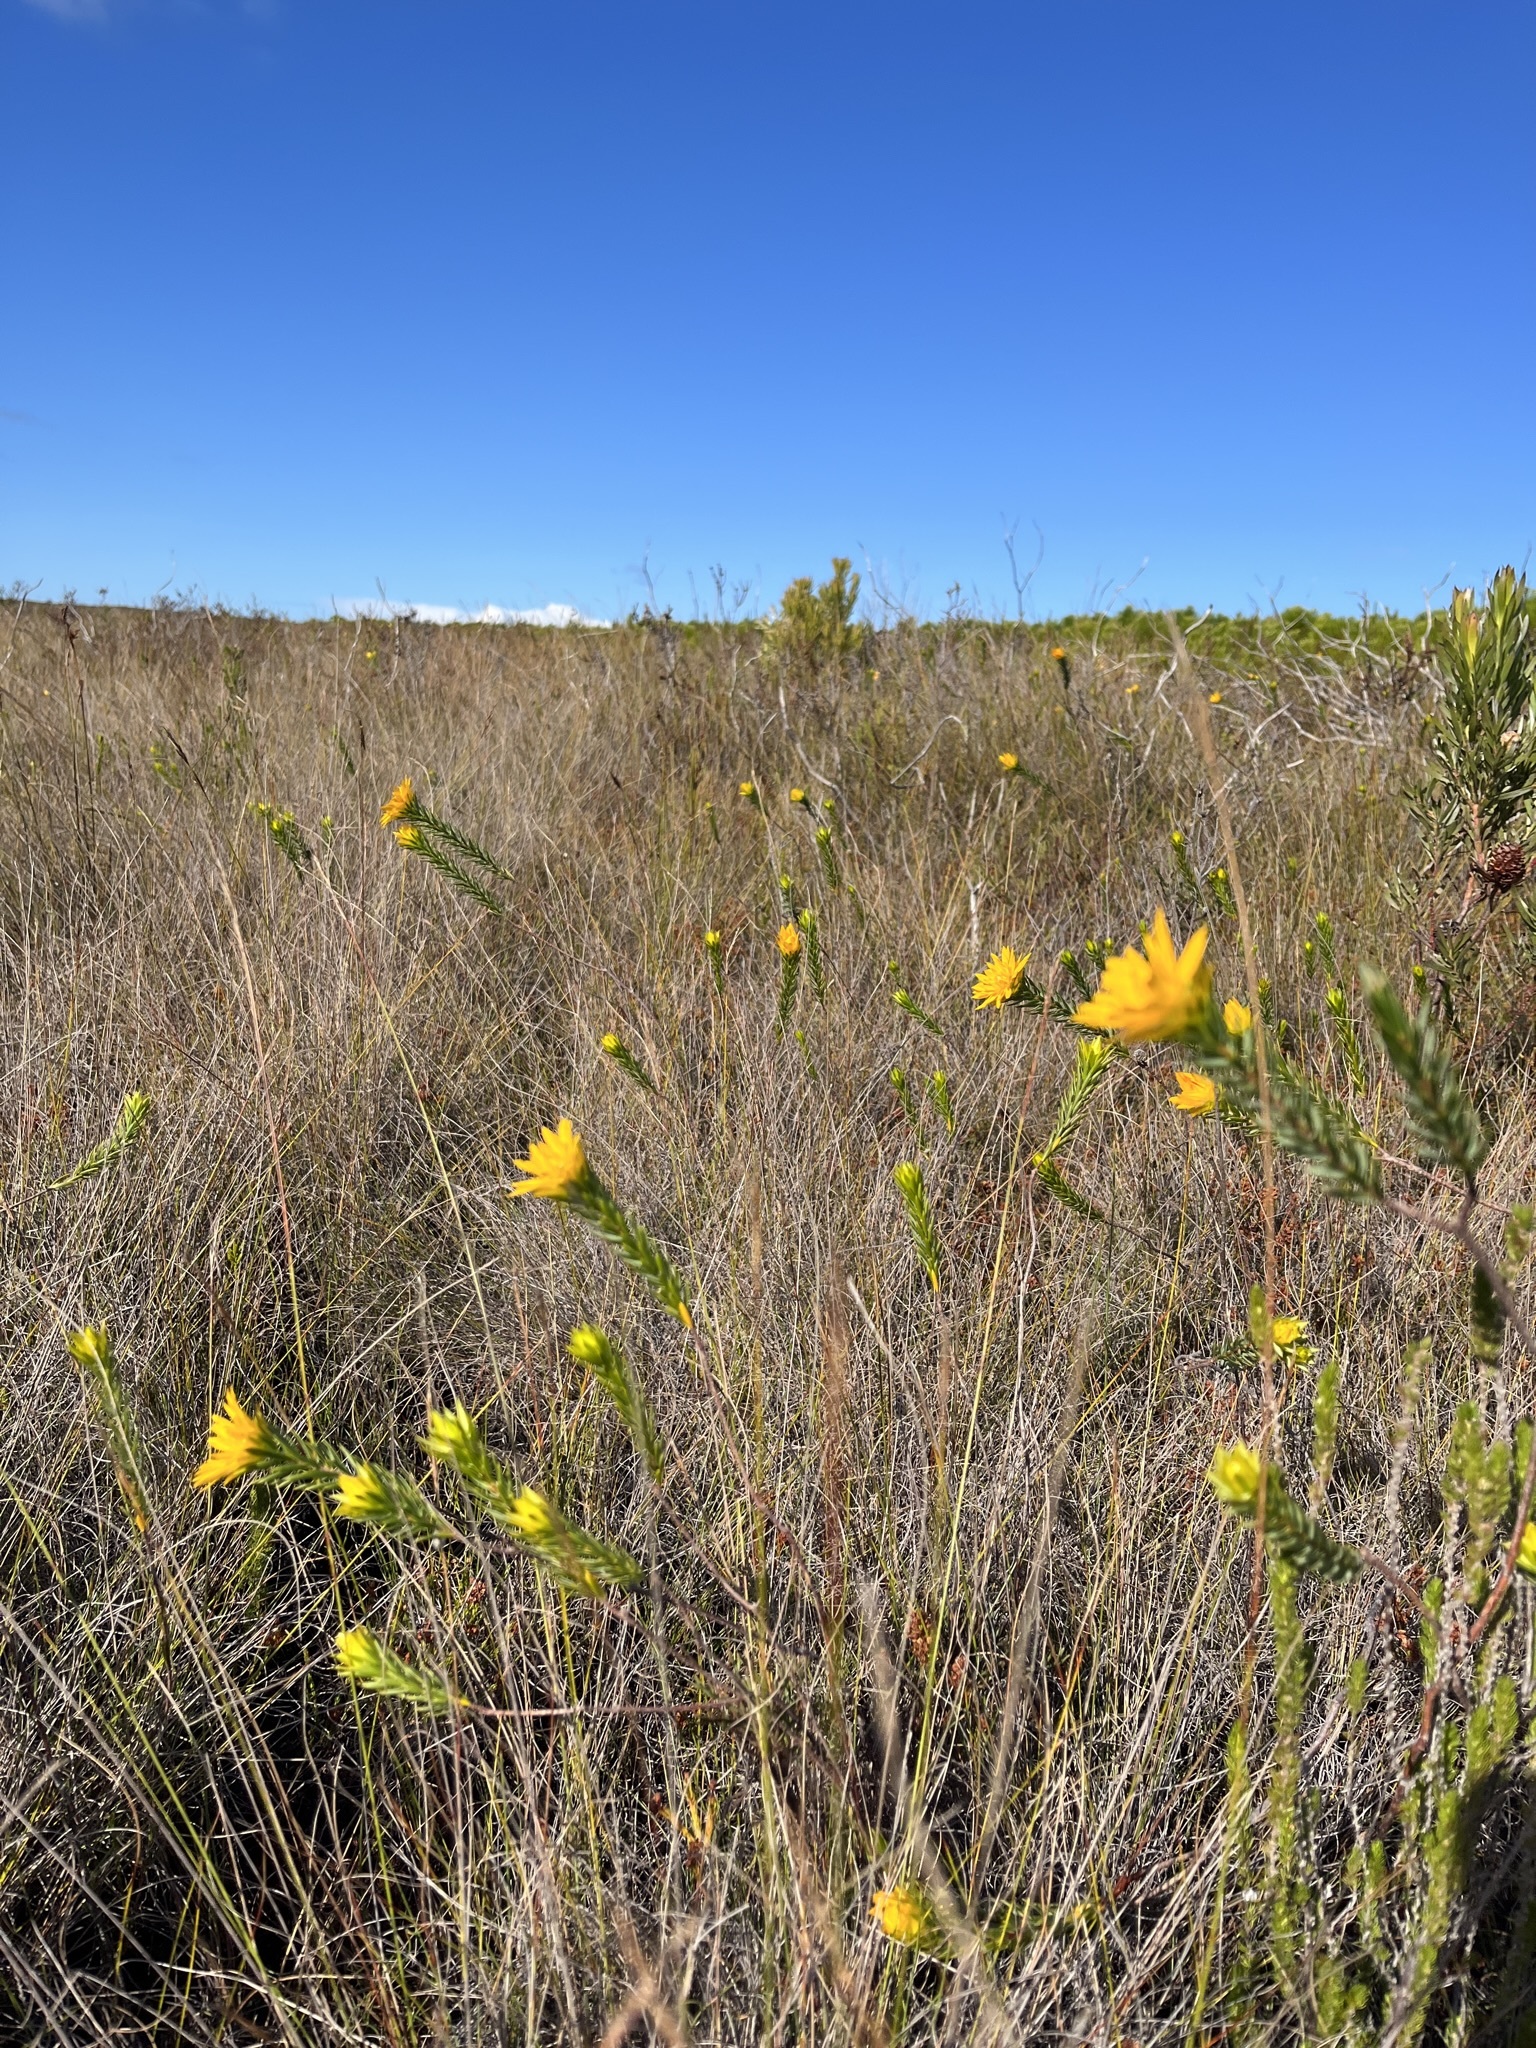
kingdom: Plantae
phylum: Tracheophyta
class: Magnoliopsida
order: Malvales
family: Thymelaeaceae
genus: Lachnaea
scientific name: Lachnaea aurea
